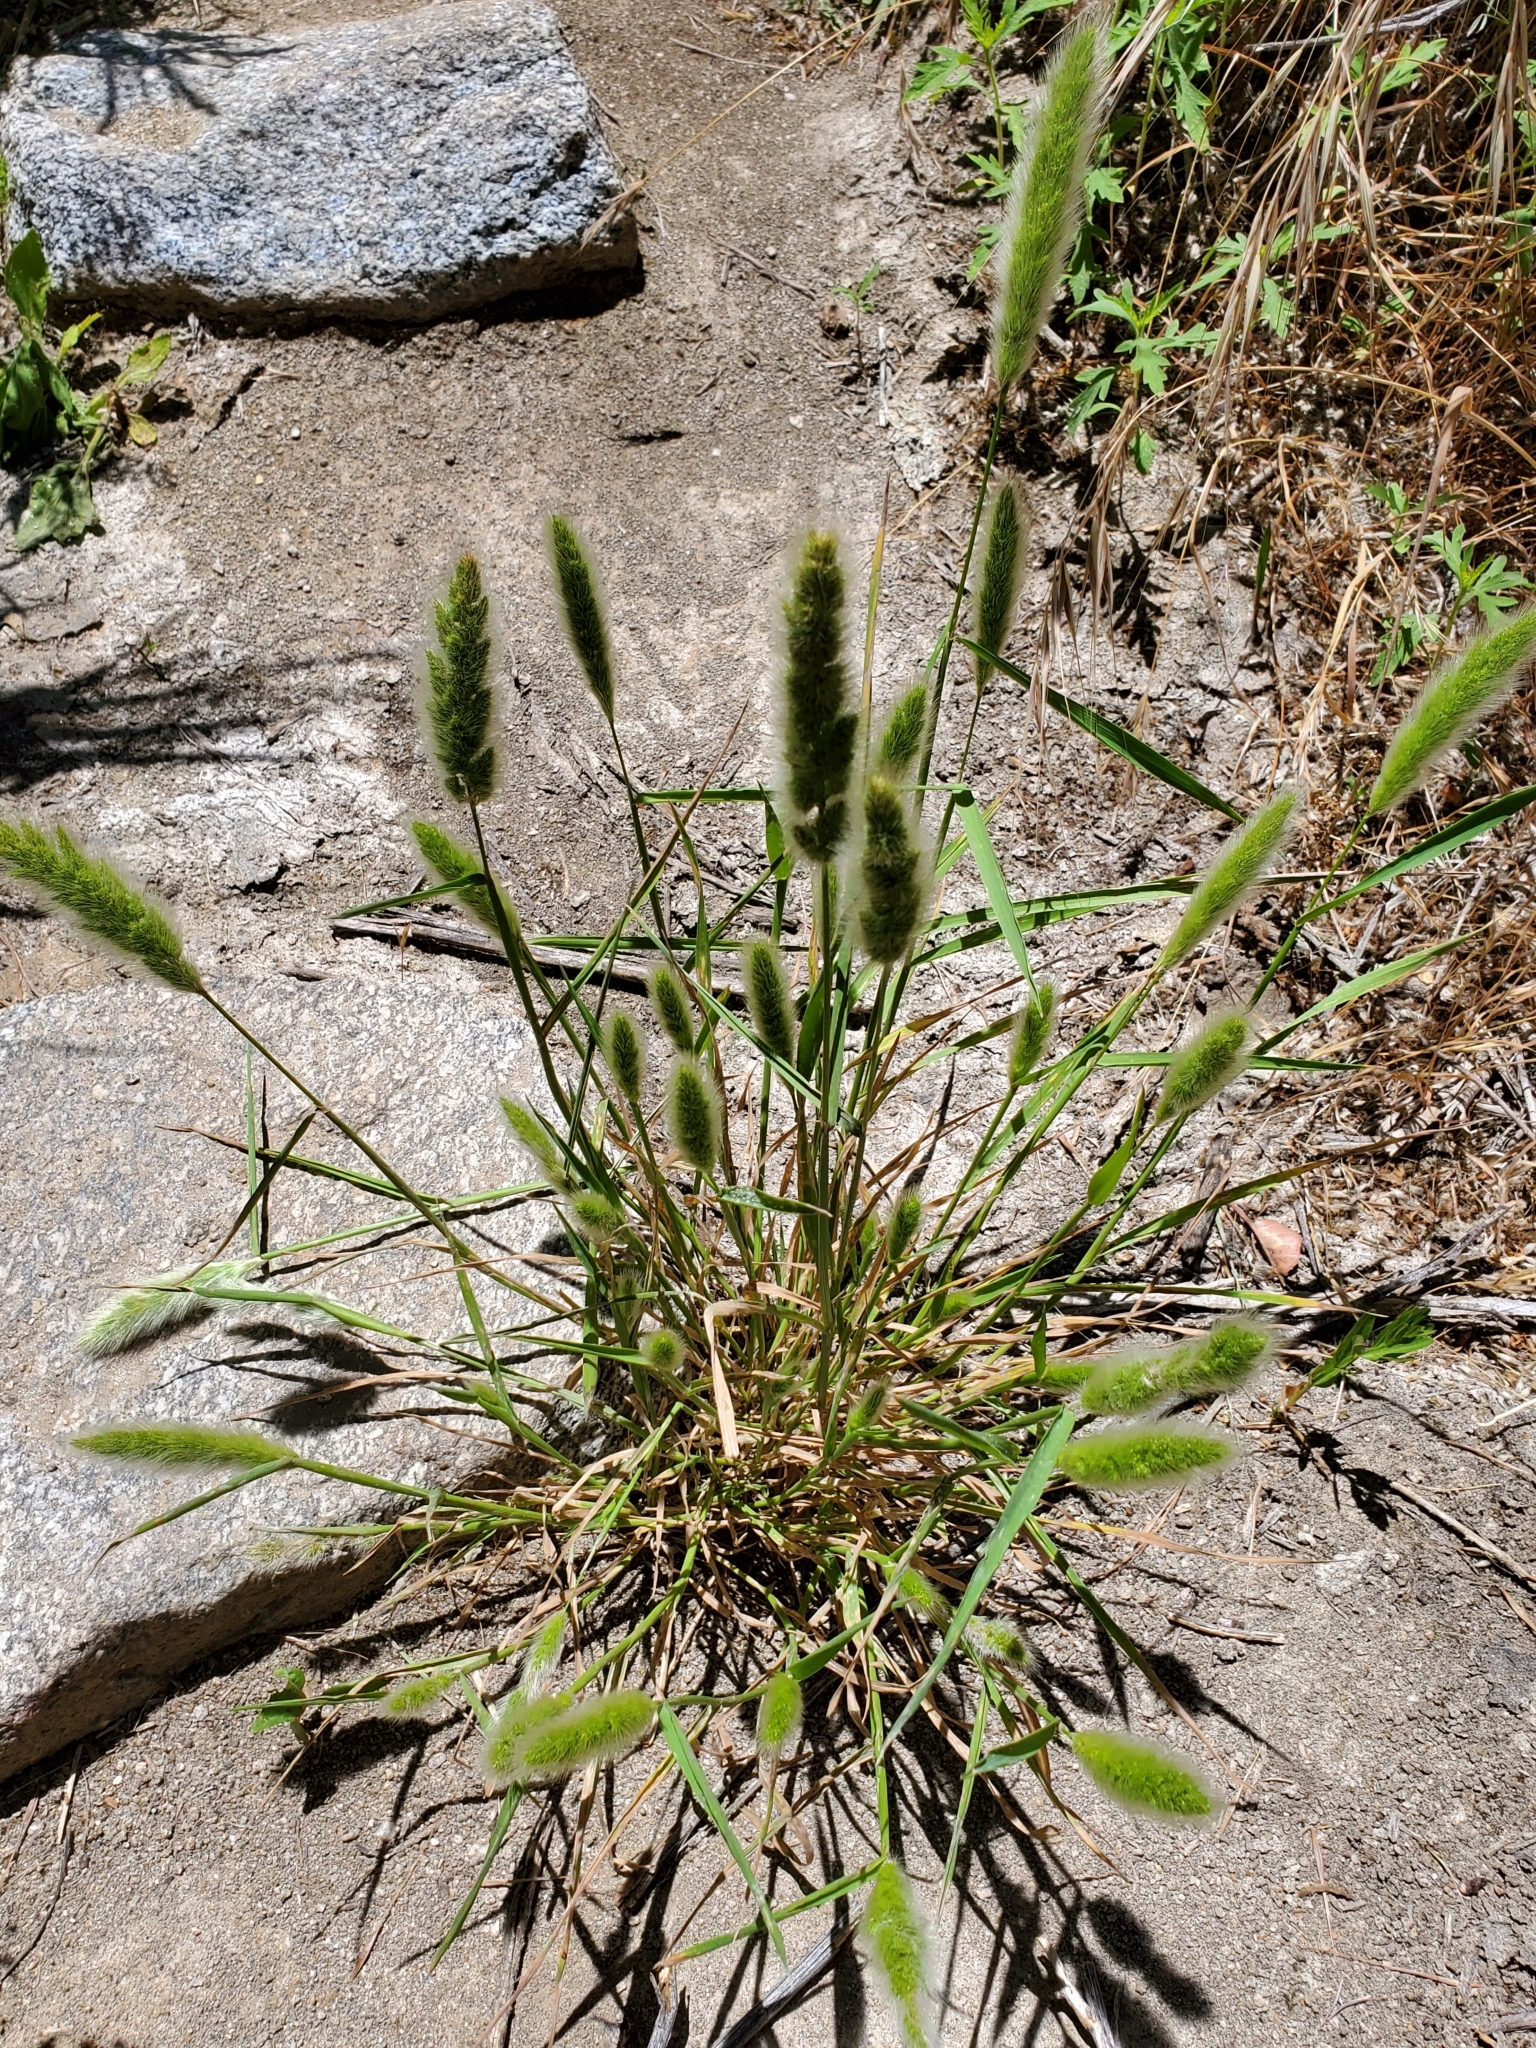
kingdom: Plantae
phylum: Tracheophyta
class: Liliopsida
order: Poales
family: Poaceae
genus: Polypogon
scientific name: Polypogon monspeliensis
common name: Annual rabbitsfoot grass
